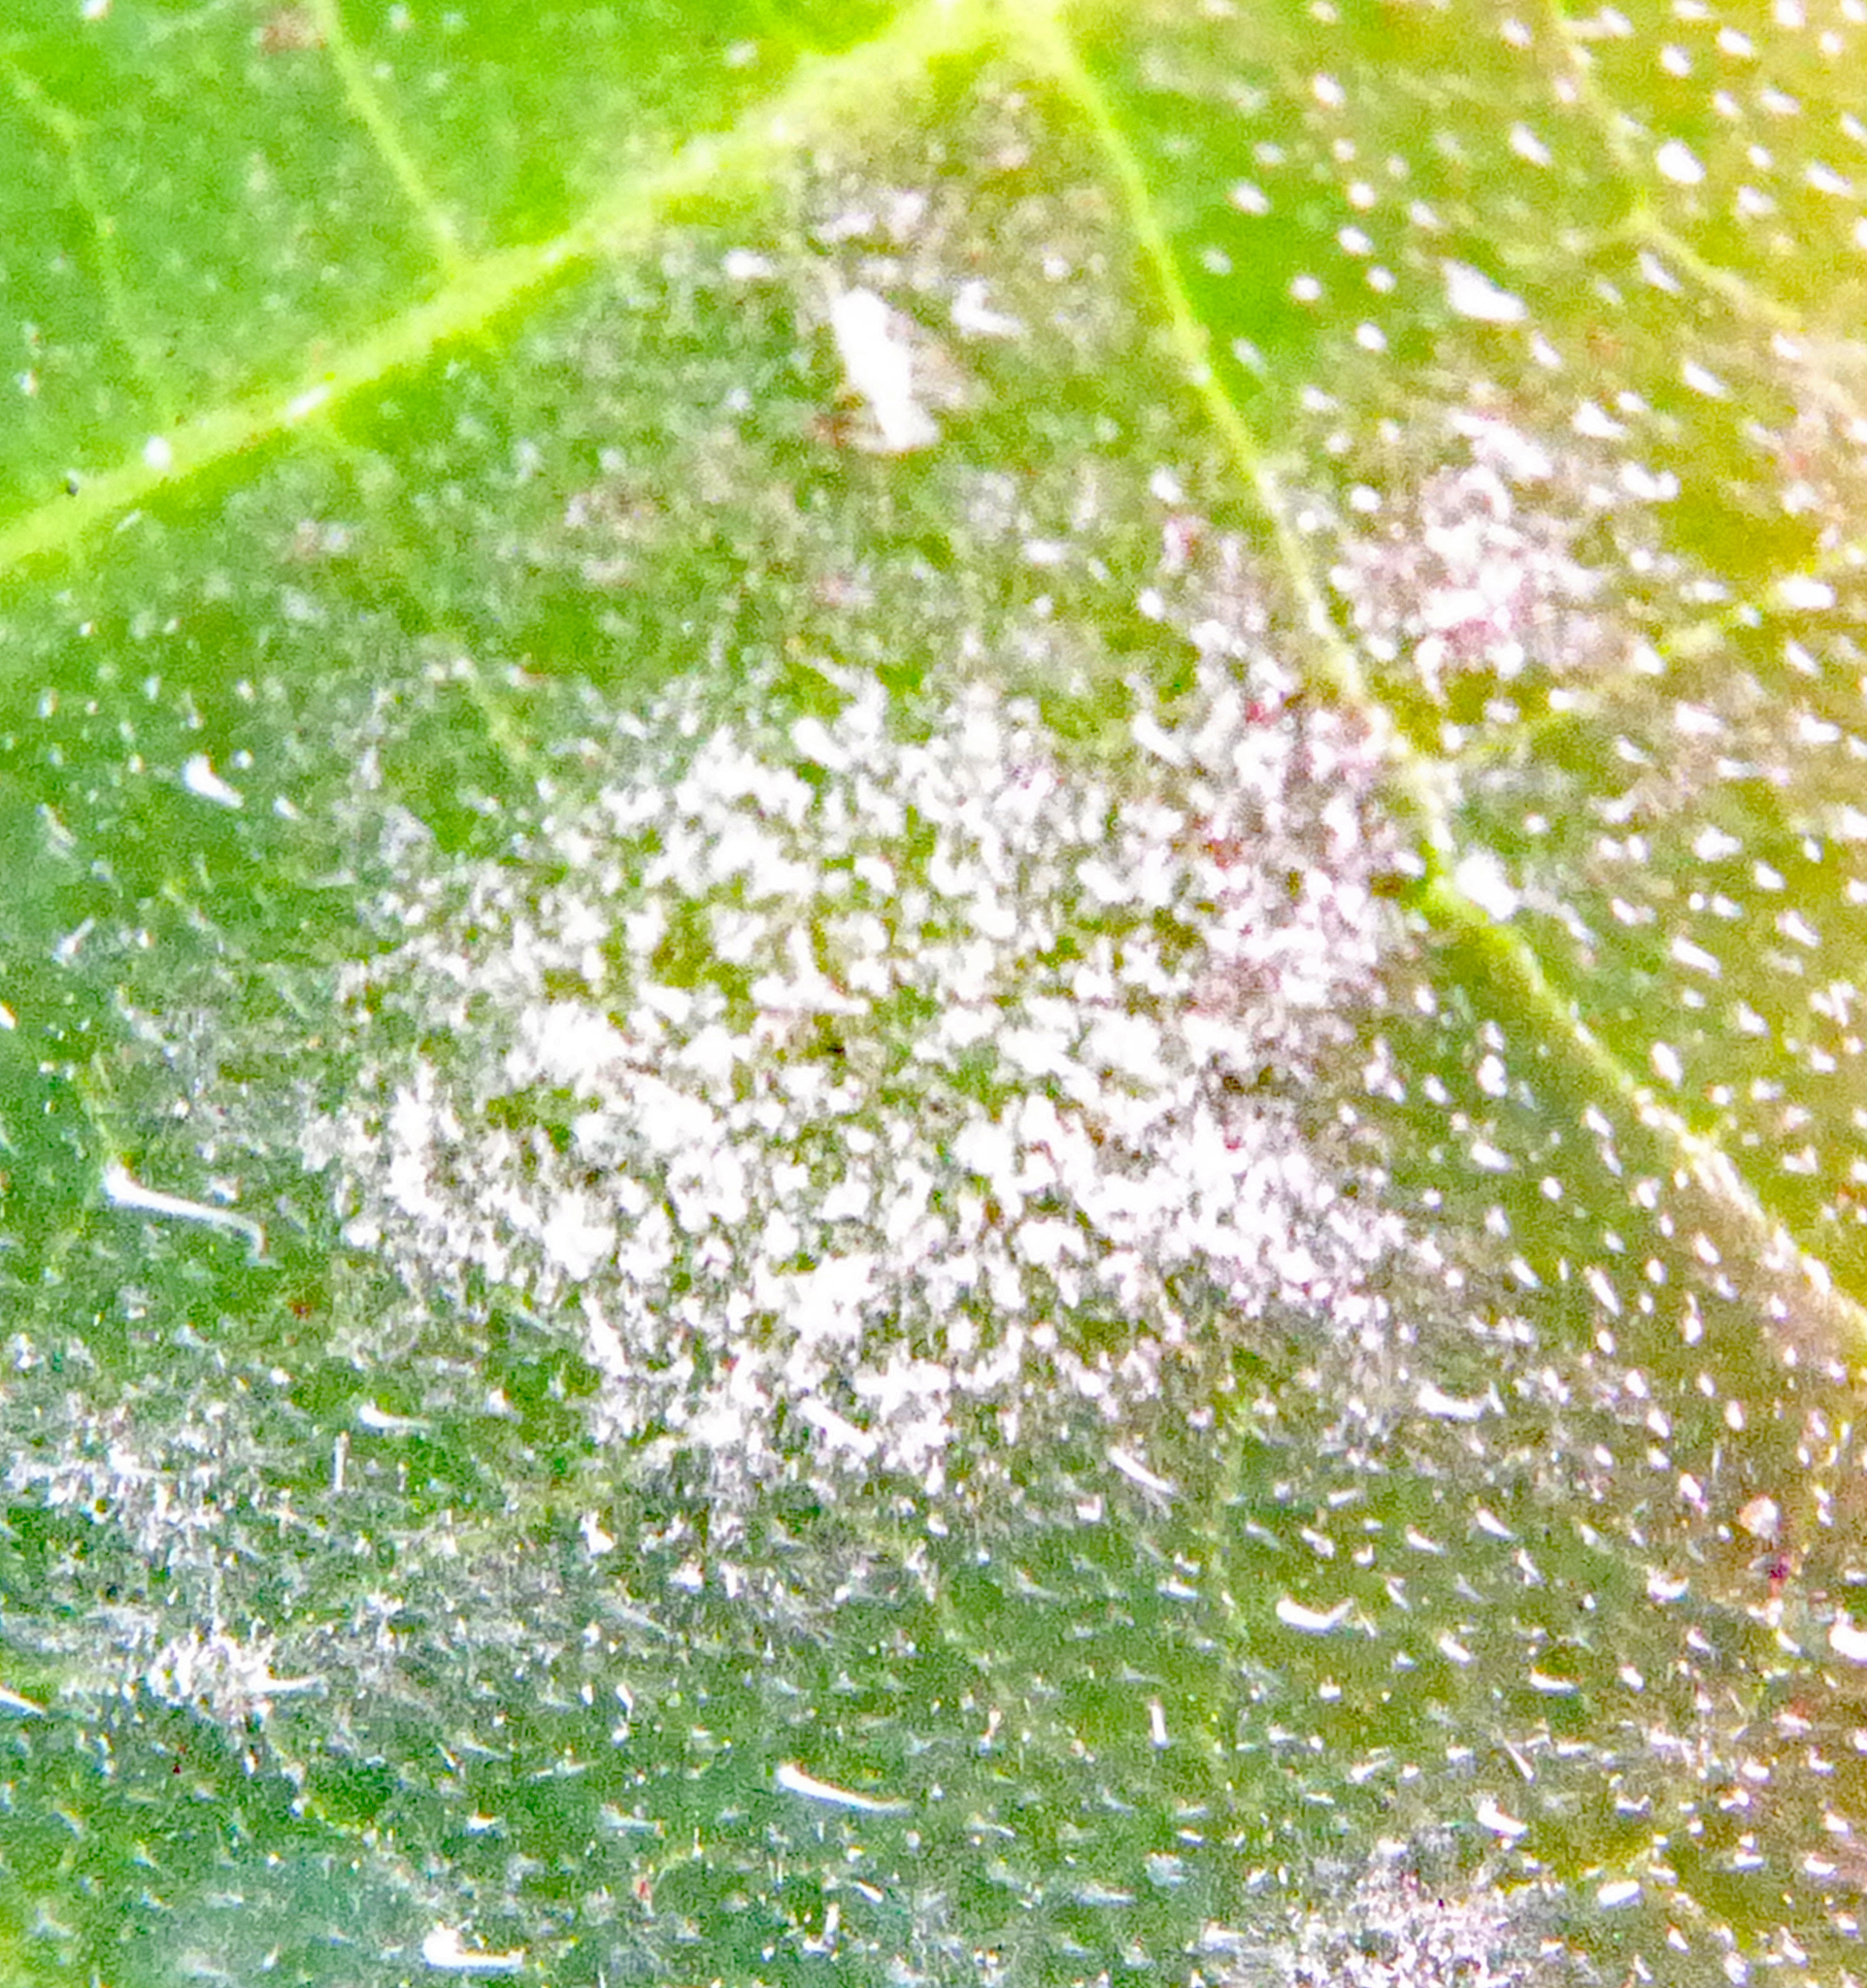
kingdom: Fungi
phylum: Ascomycota
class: Leotiomycetes
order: Helotiales
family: Erysiphaceae
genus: Golovinomyces
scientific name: Golovinomyces tabaci
